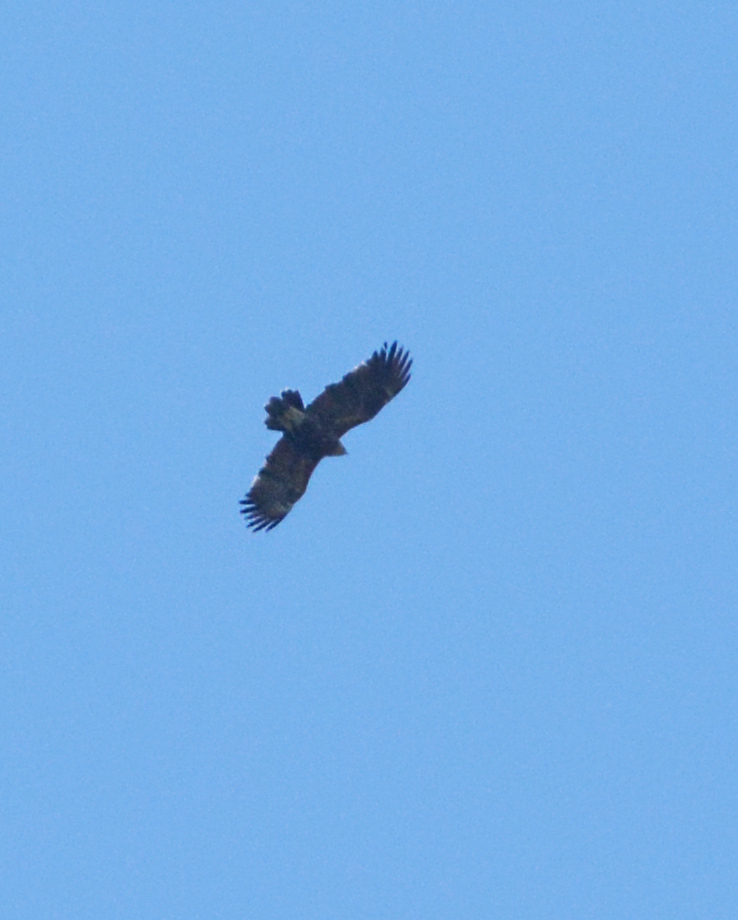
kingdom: Animalia
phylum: Chordata
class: Aves
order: Accipitriformes
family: Accipitridae
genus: Aquila
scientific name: Aquila pomarina
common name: Lesser spotted eagle
